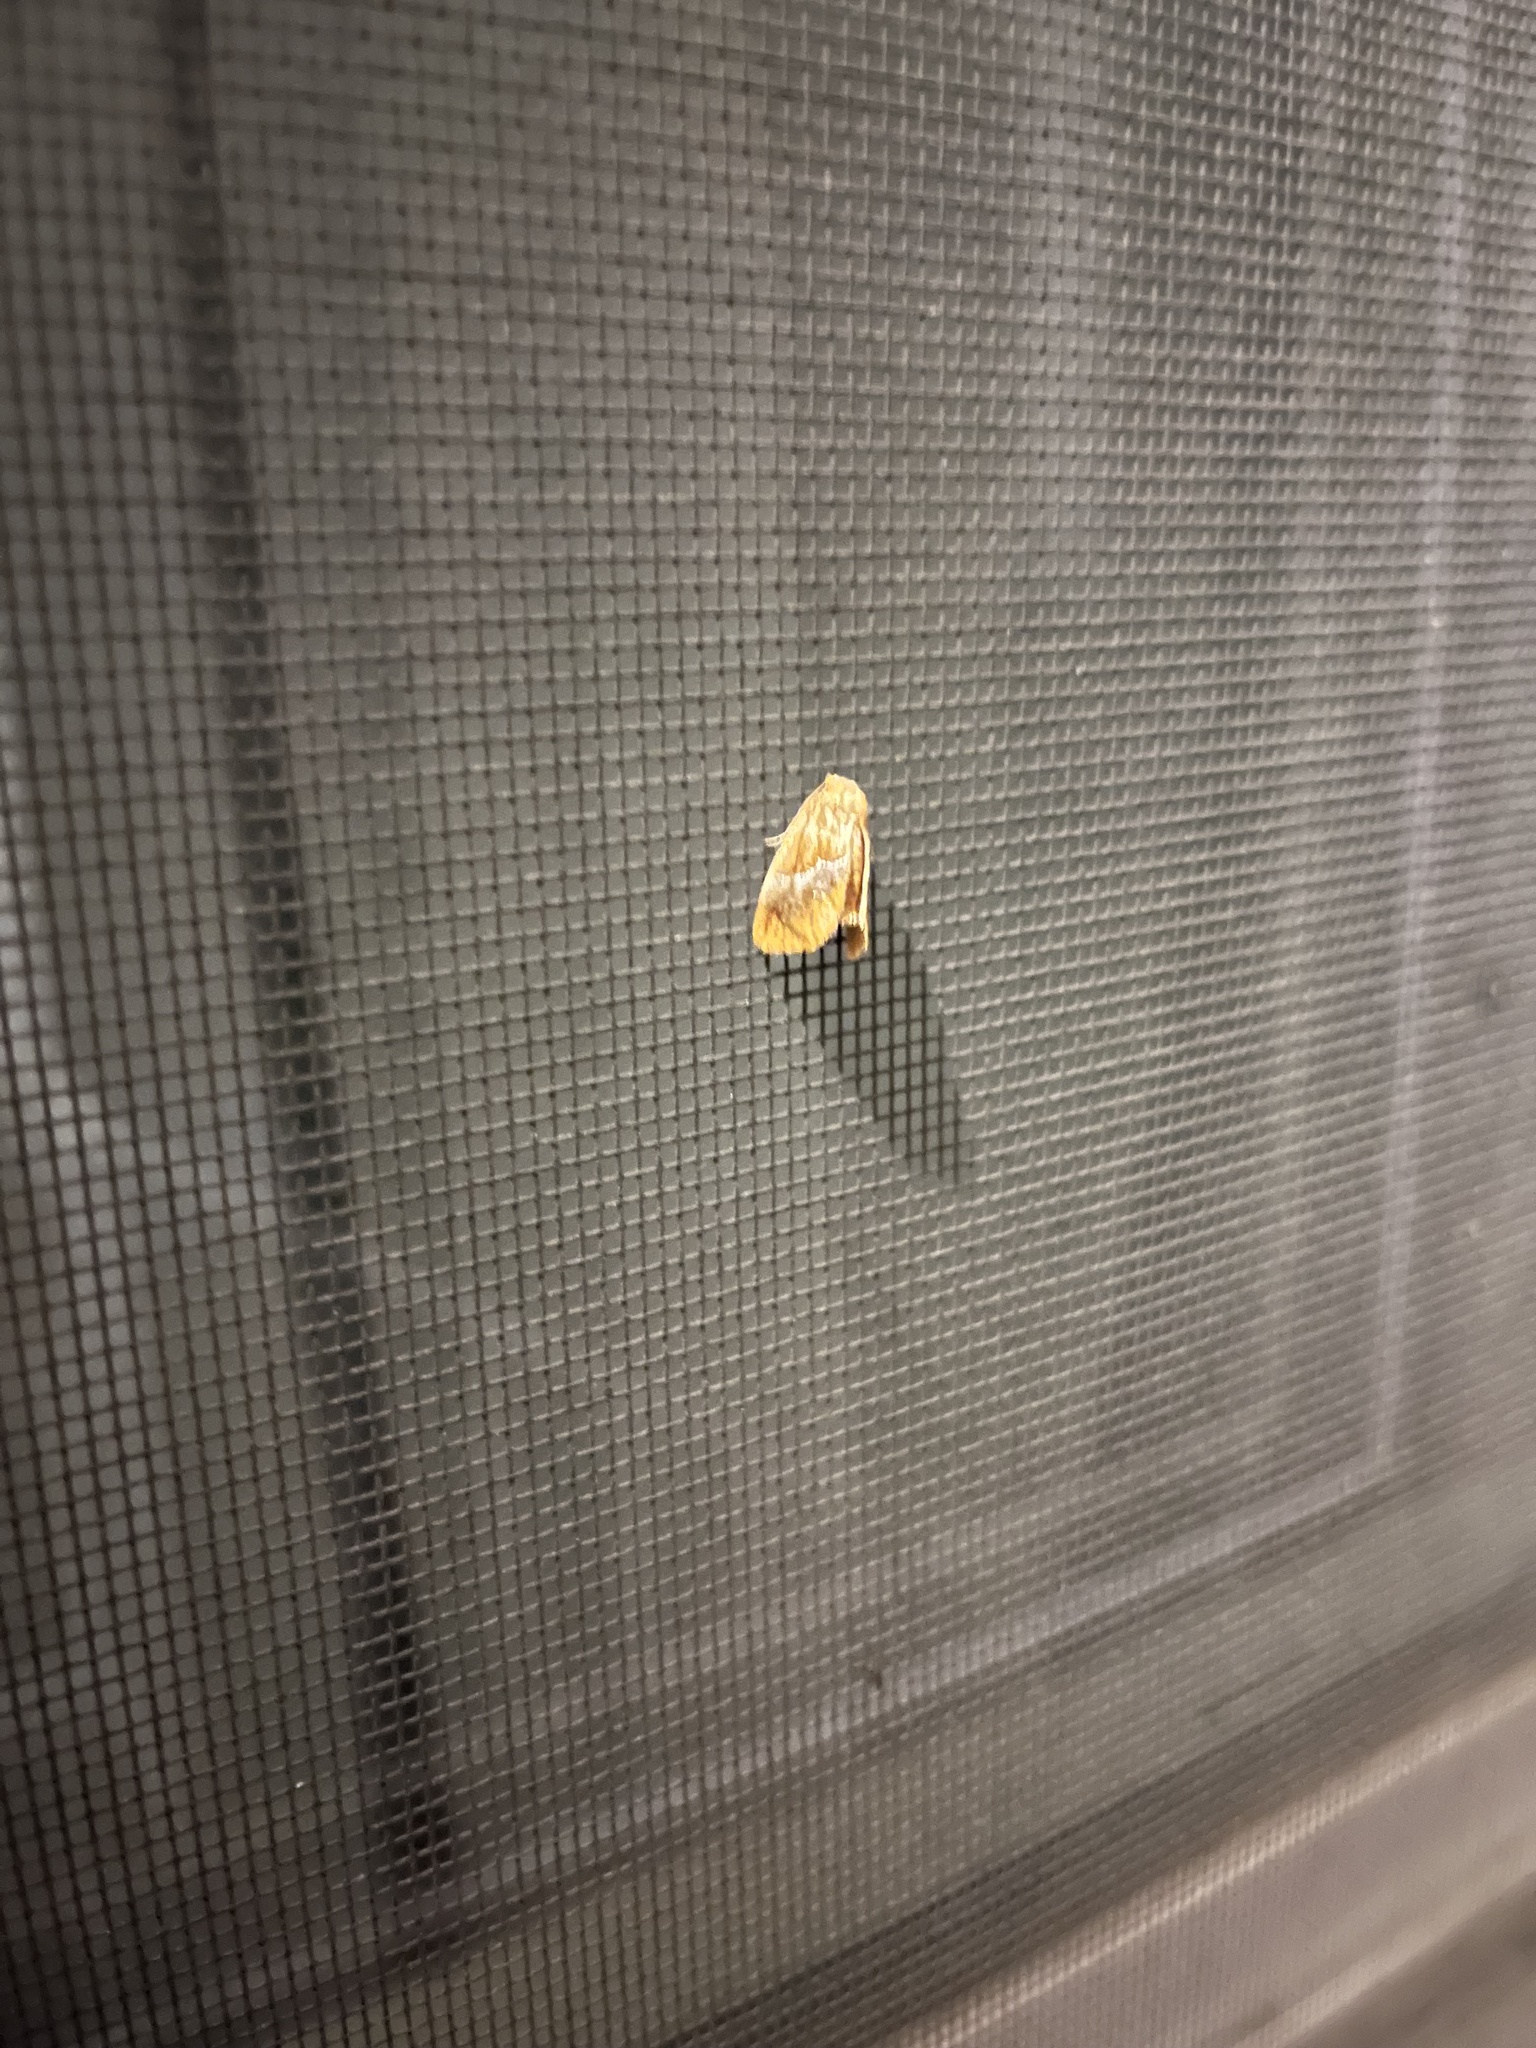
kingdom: Animalia
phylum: Arthropoda
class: Insecta
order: Lepidoptera
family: Limacodidae
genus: Lithacodes
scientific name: Lithacodes fasciola
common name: Yellow-shouldered slug moth
